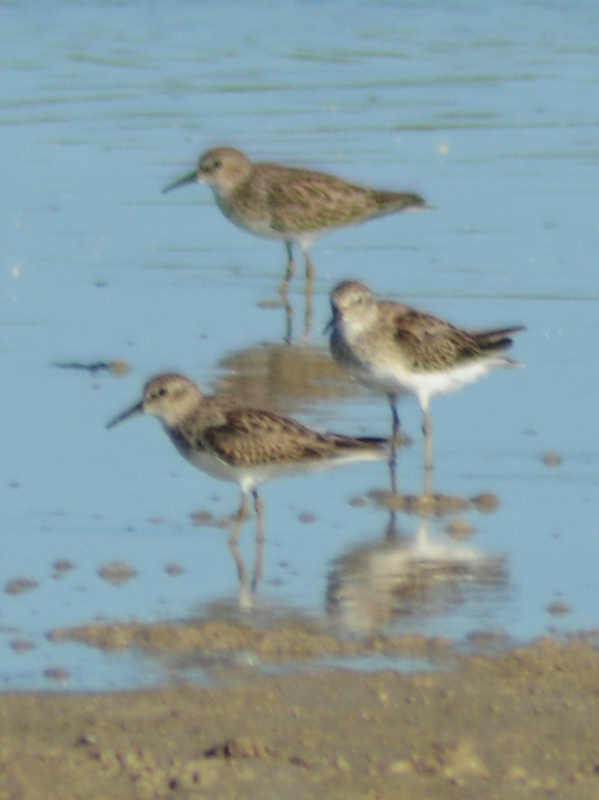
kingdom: Animalia
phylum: Chordata
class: Aves
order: Charadriiformes
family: Scolopacidae
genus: Calidris
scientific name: Calidris minutilla
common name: Least sandpiper
